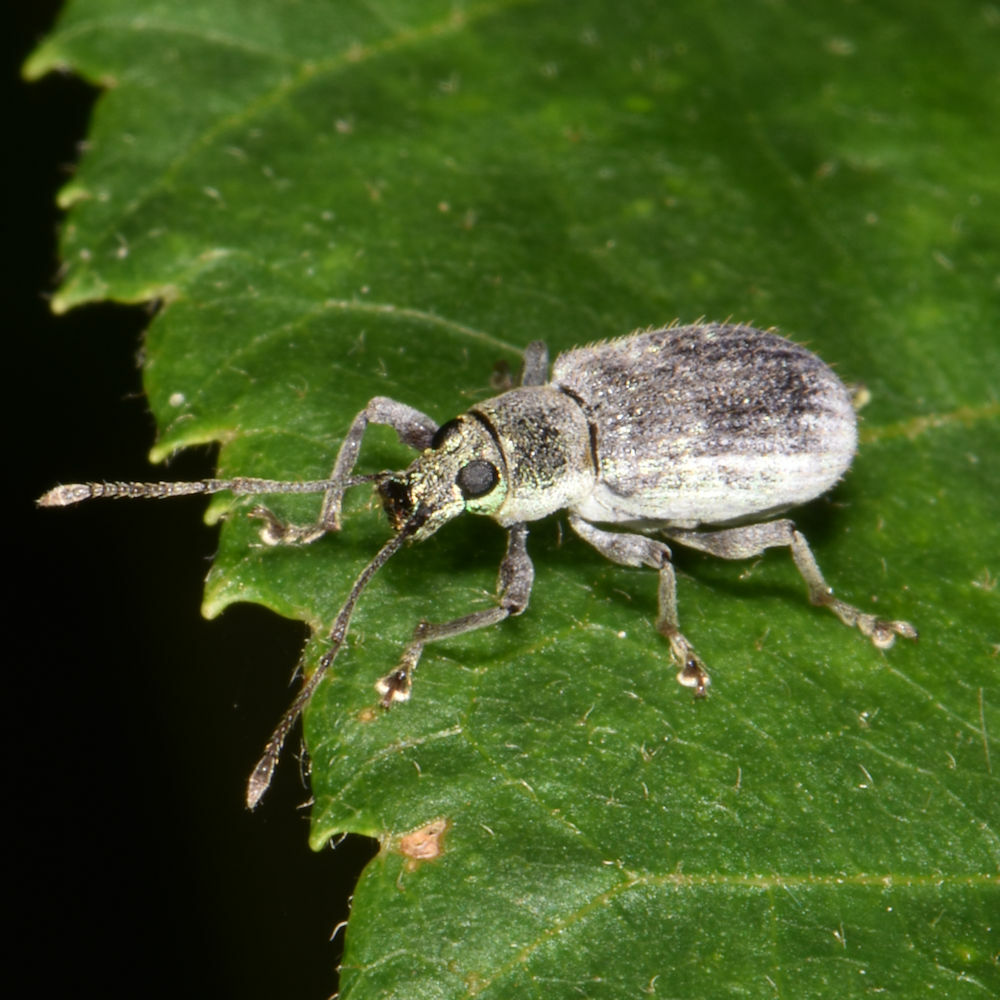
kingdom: Animalia
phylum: Arthropoda
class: Insecta
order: Coleoptera
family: Curculionidae
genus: Cyrtepistomus
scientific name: Cyrtepistomus castaneus
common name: Weevil
